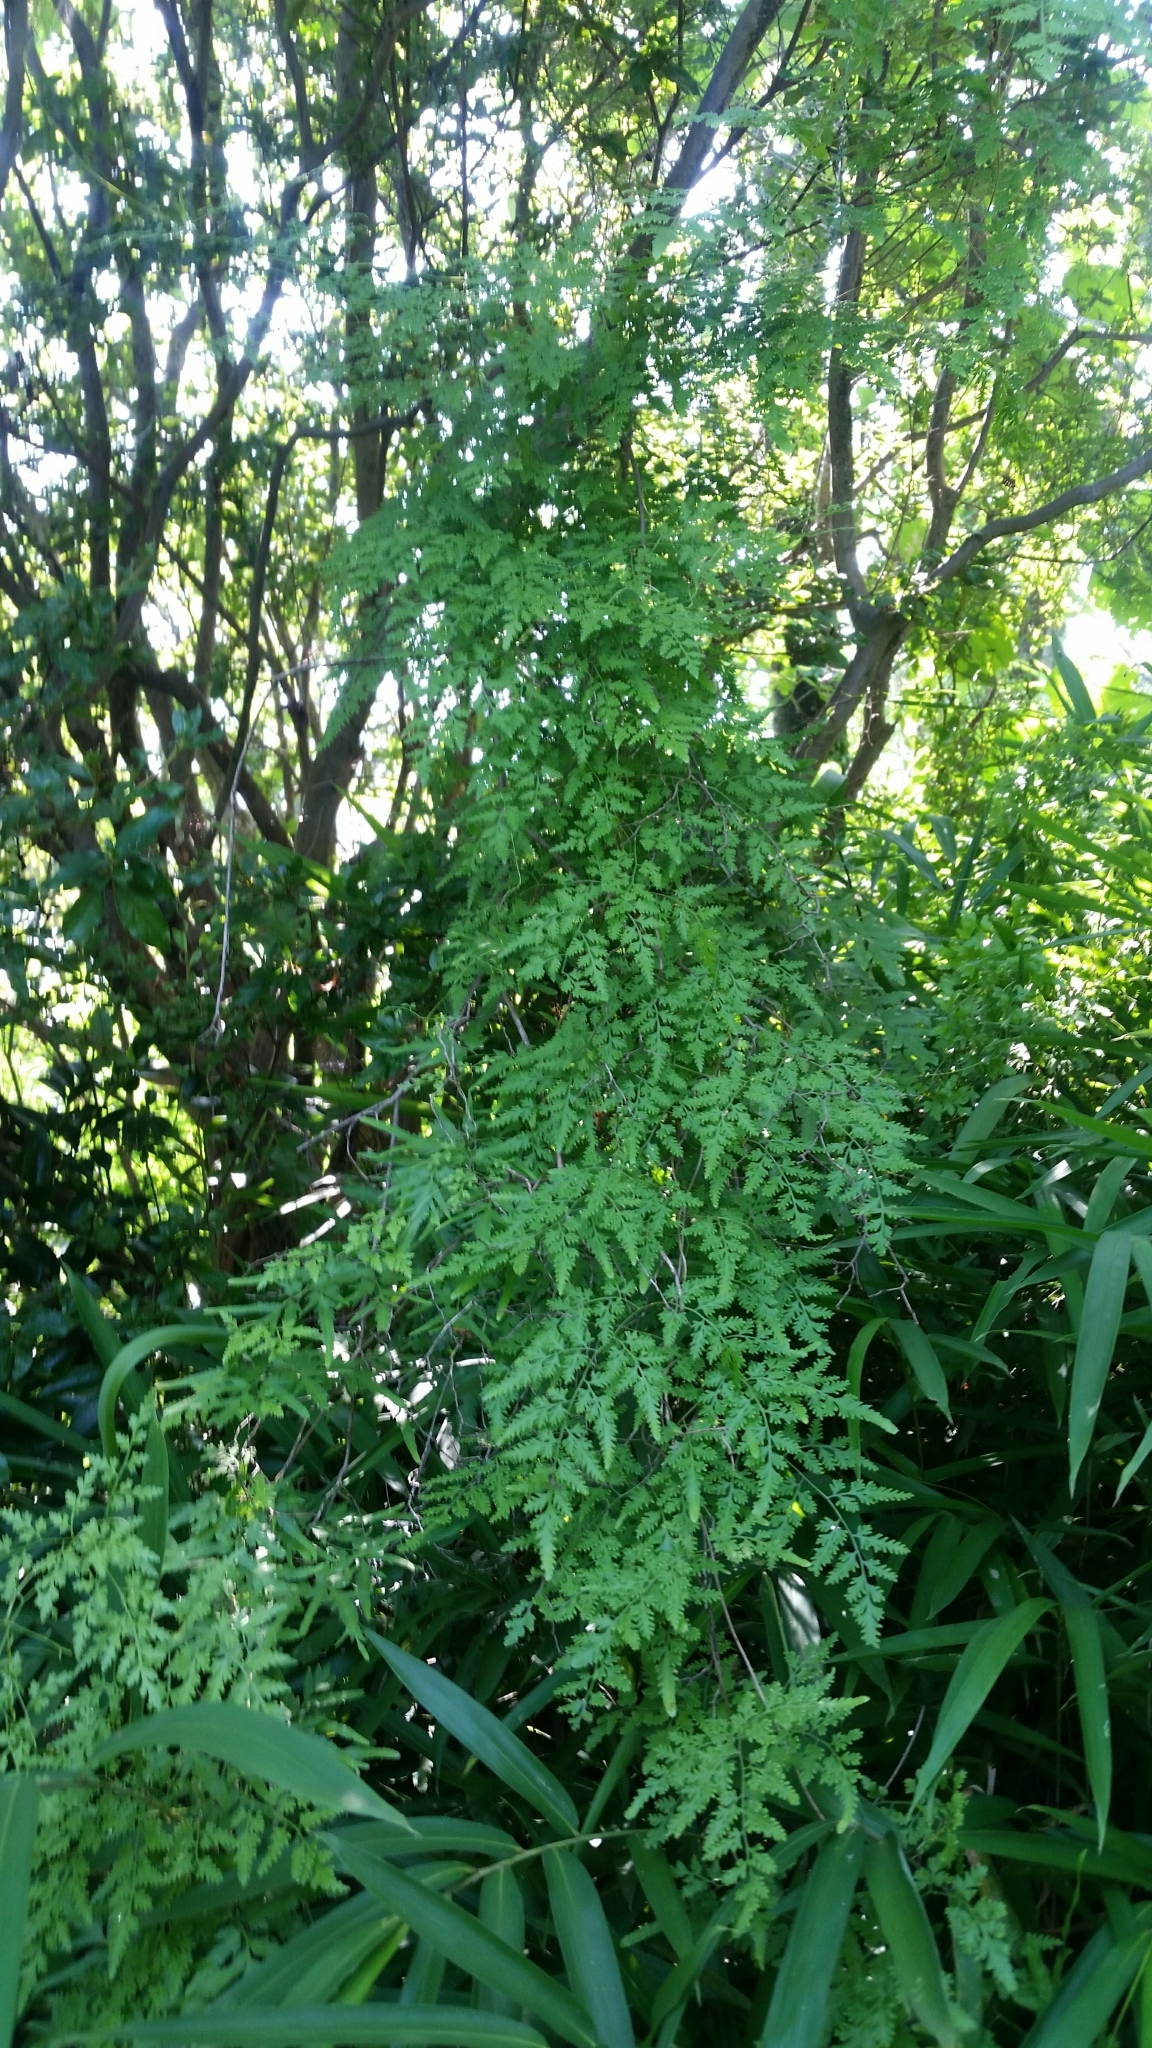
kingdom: Plantae
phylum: Tracheophyta
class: Polypodiopsida
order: Schizaeales
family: Lygodiaceae
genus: Lygodium
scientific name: Lygodium japonicum
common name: Japanese climbing fern
